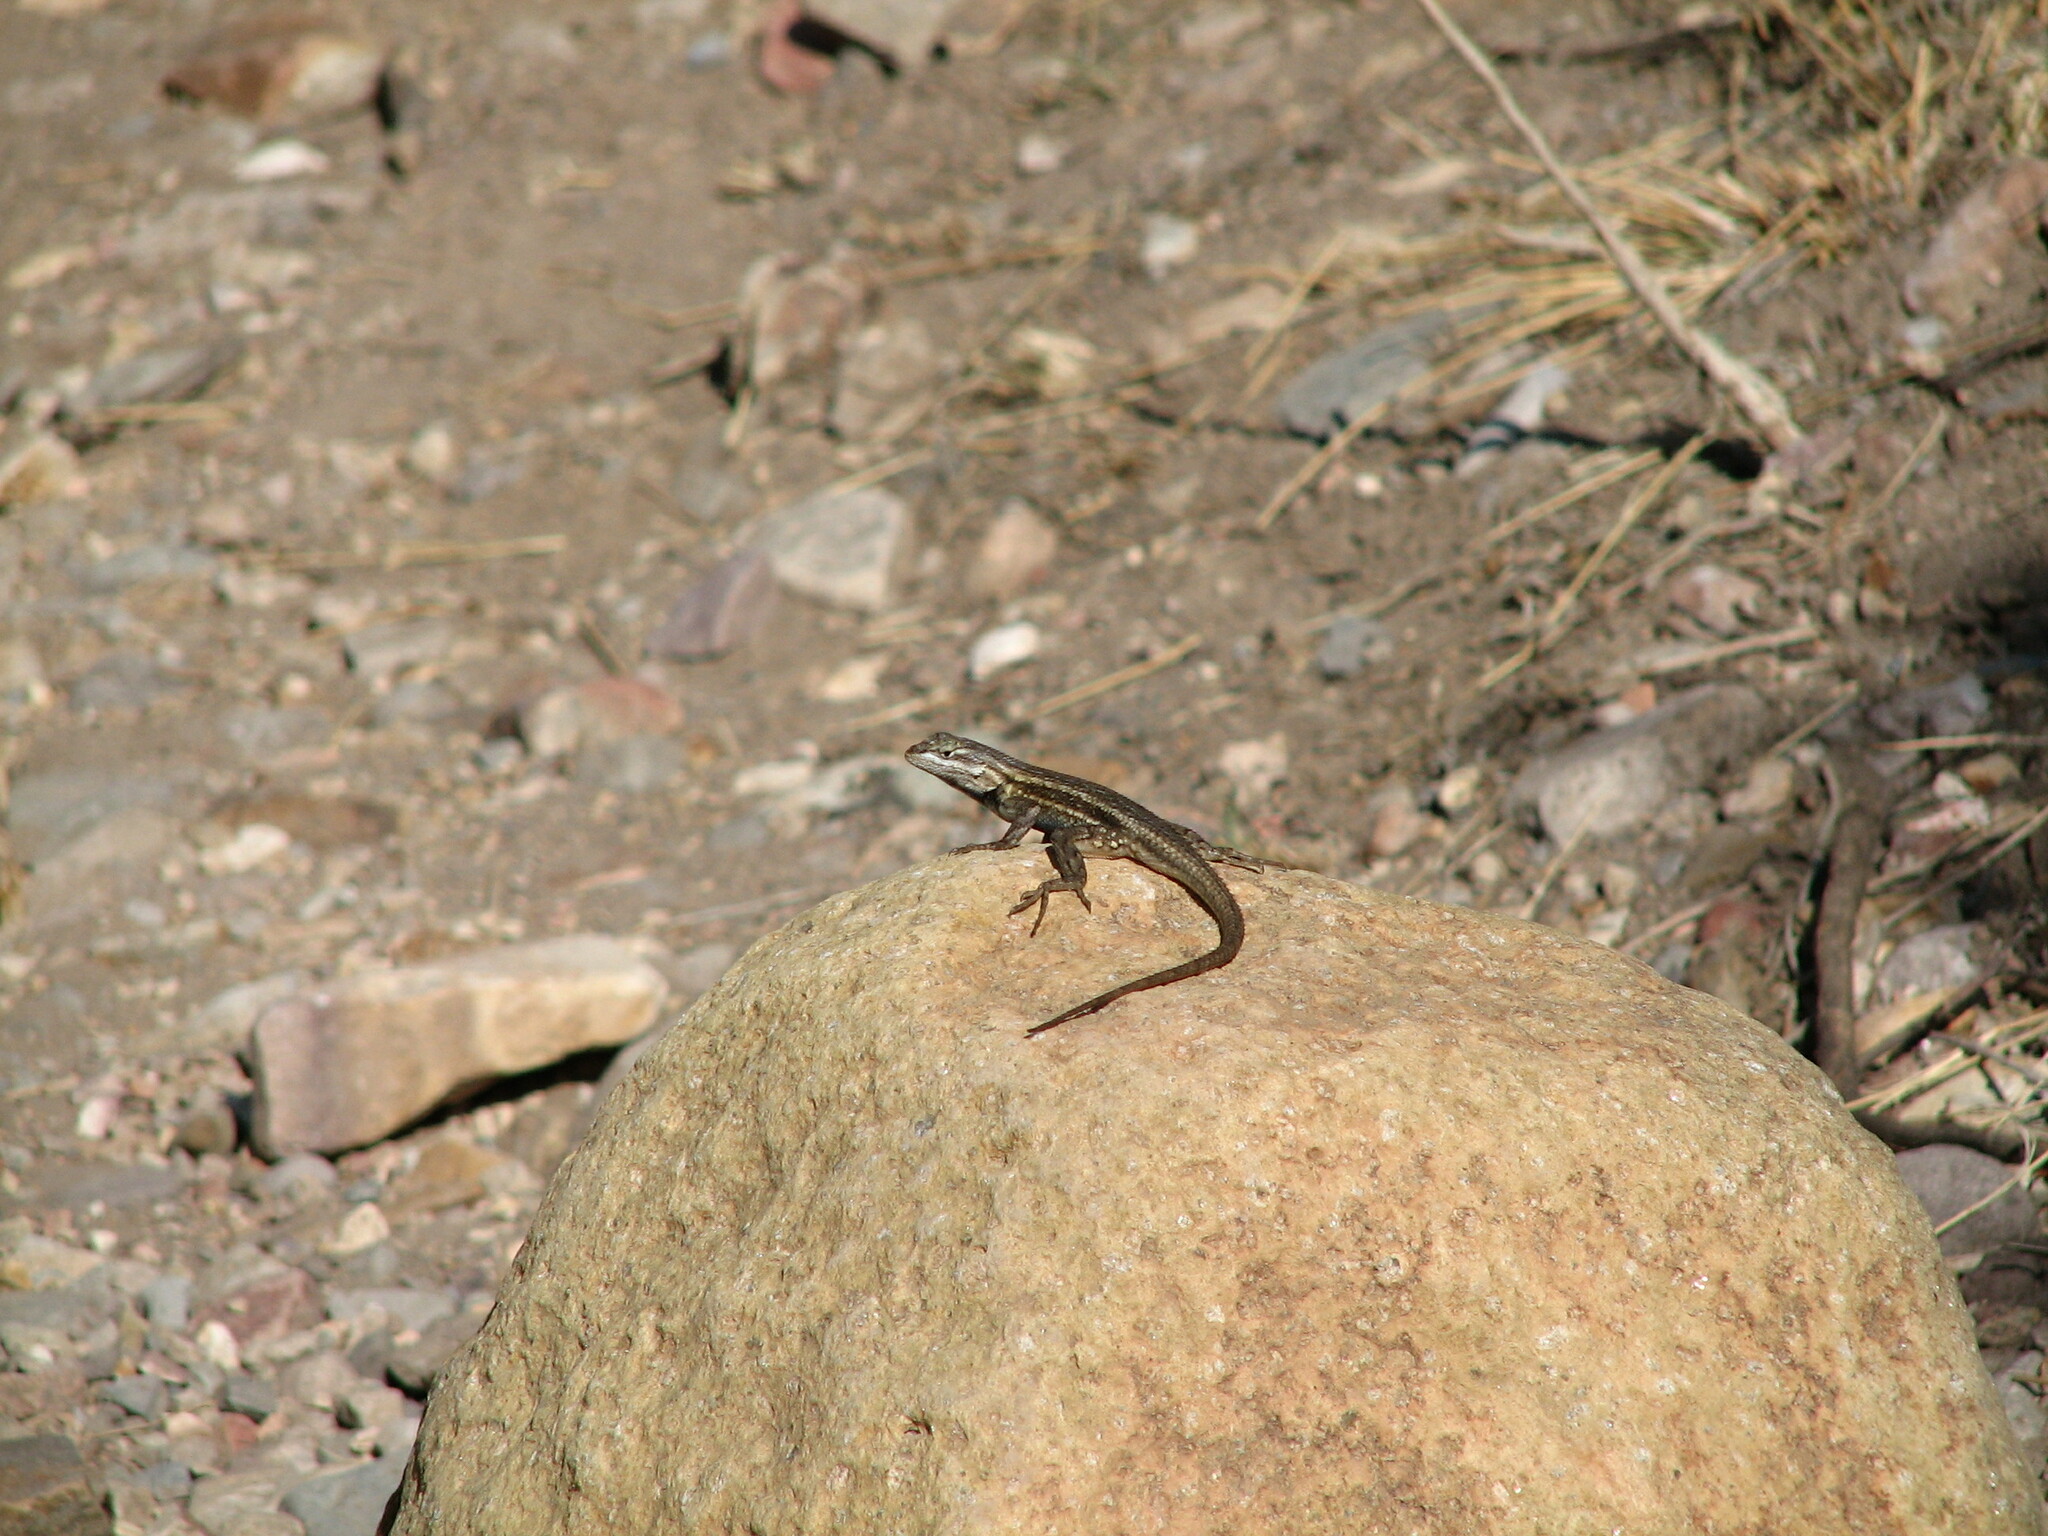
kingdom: Animalia
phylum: Chordata
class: Squamata
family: Phrynosomatidae
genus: Sceloporus
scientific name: Sceloporus cowlesi
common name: White sands prairie lizard
